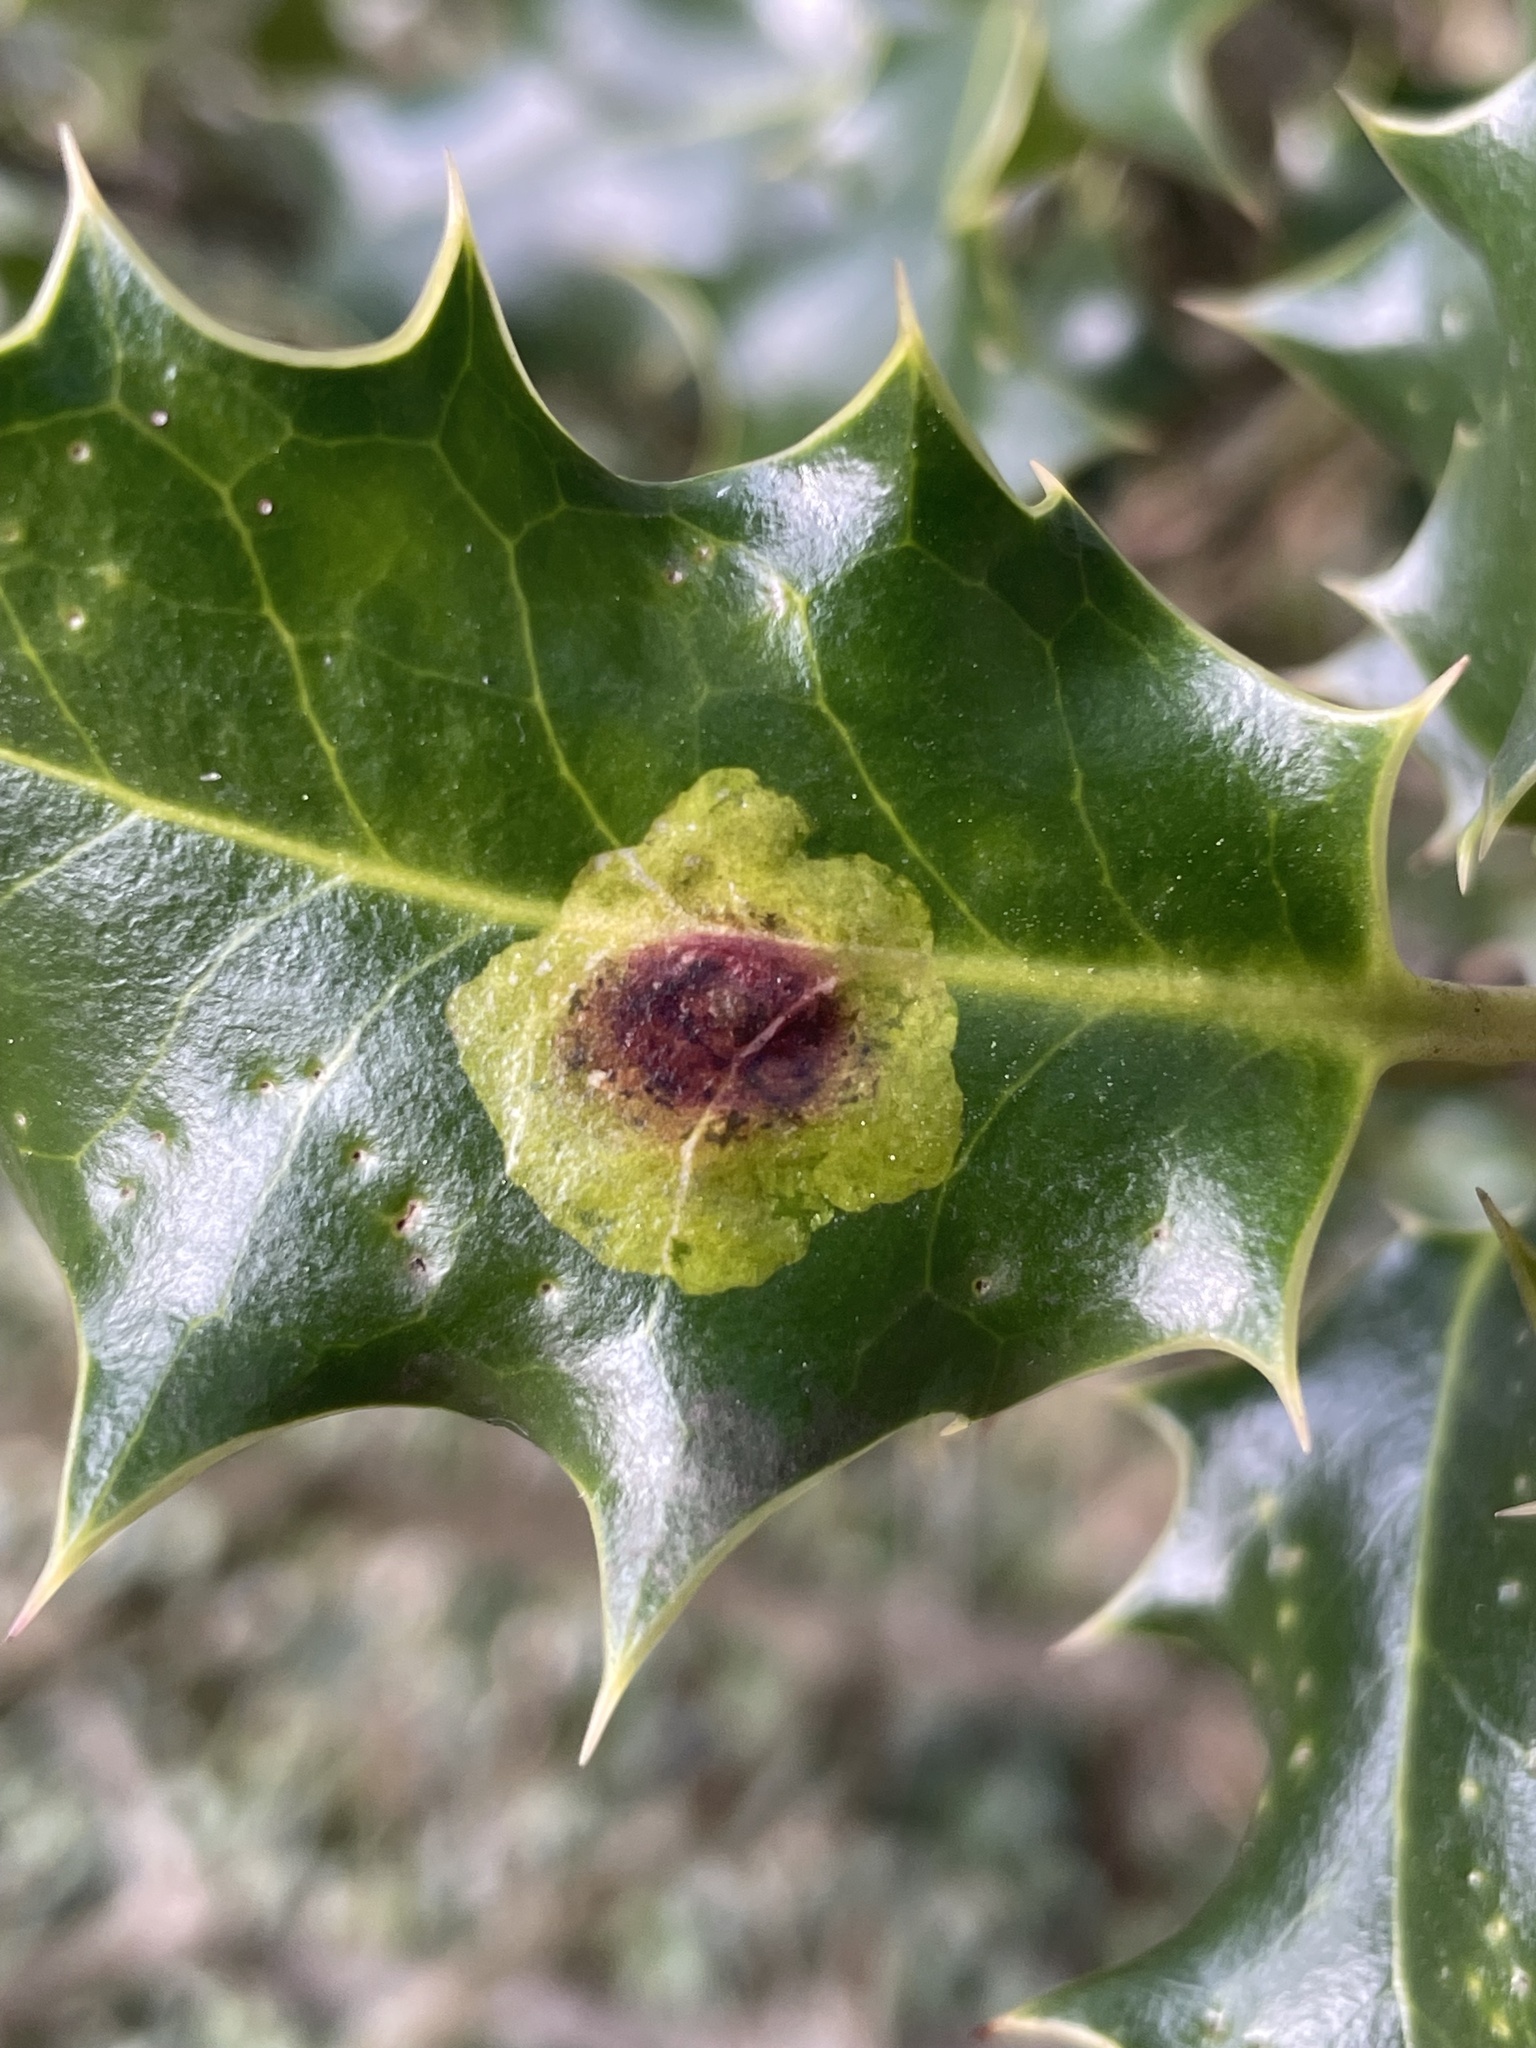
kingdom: Animalia
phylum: Arthropoda
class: Insecta
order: Diptera
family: Agromyzidae
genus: Phytomyza
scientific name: Phytomyza ilicis
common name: Holly leafminer
